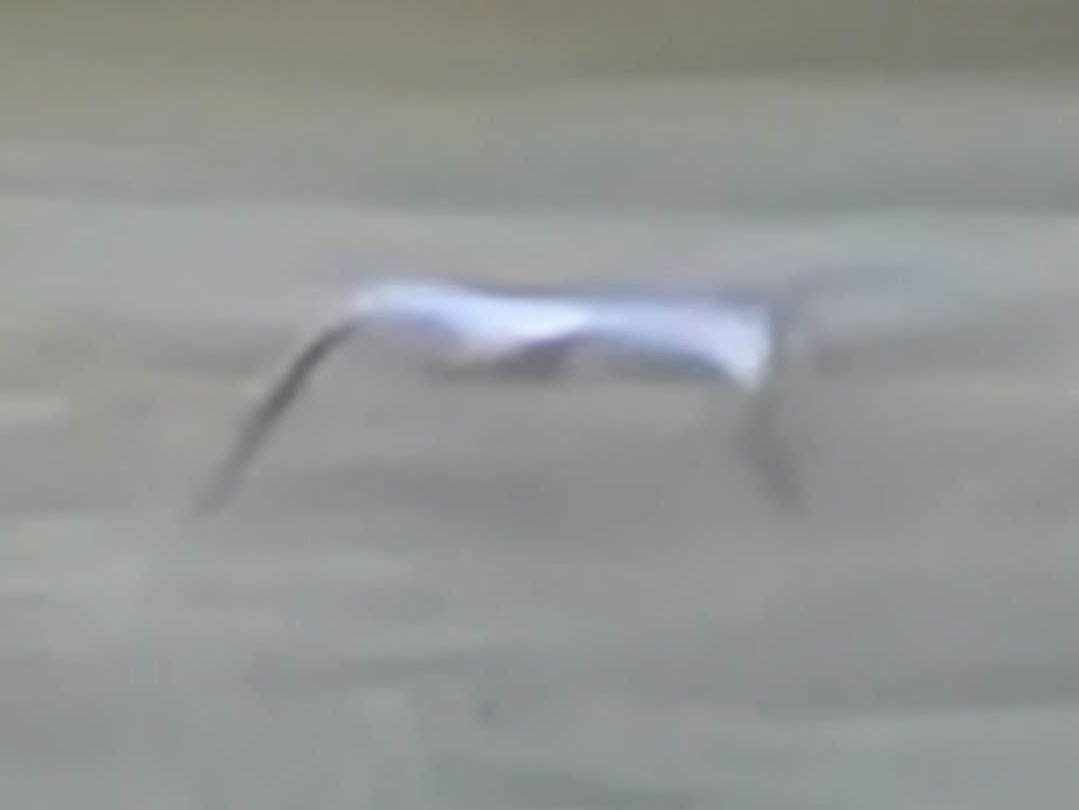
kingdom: Animalia
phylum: Chordata
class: Aves
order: Pelecaniformes
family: Ardeidae
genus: Ardea
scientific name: Ardea cinerea
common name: Grey heron
